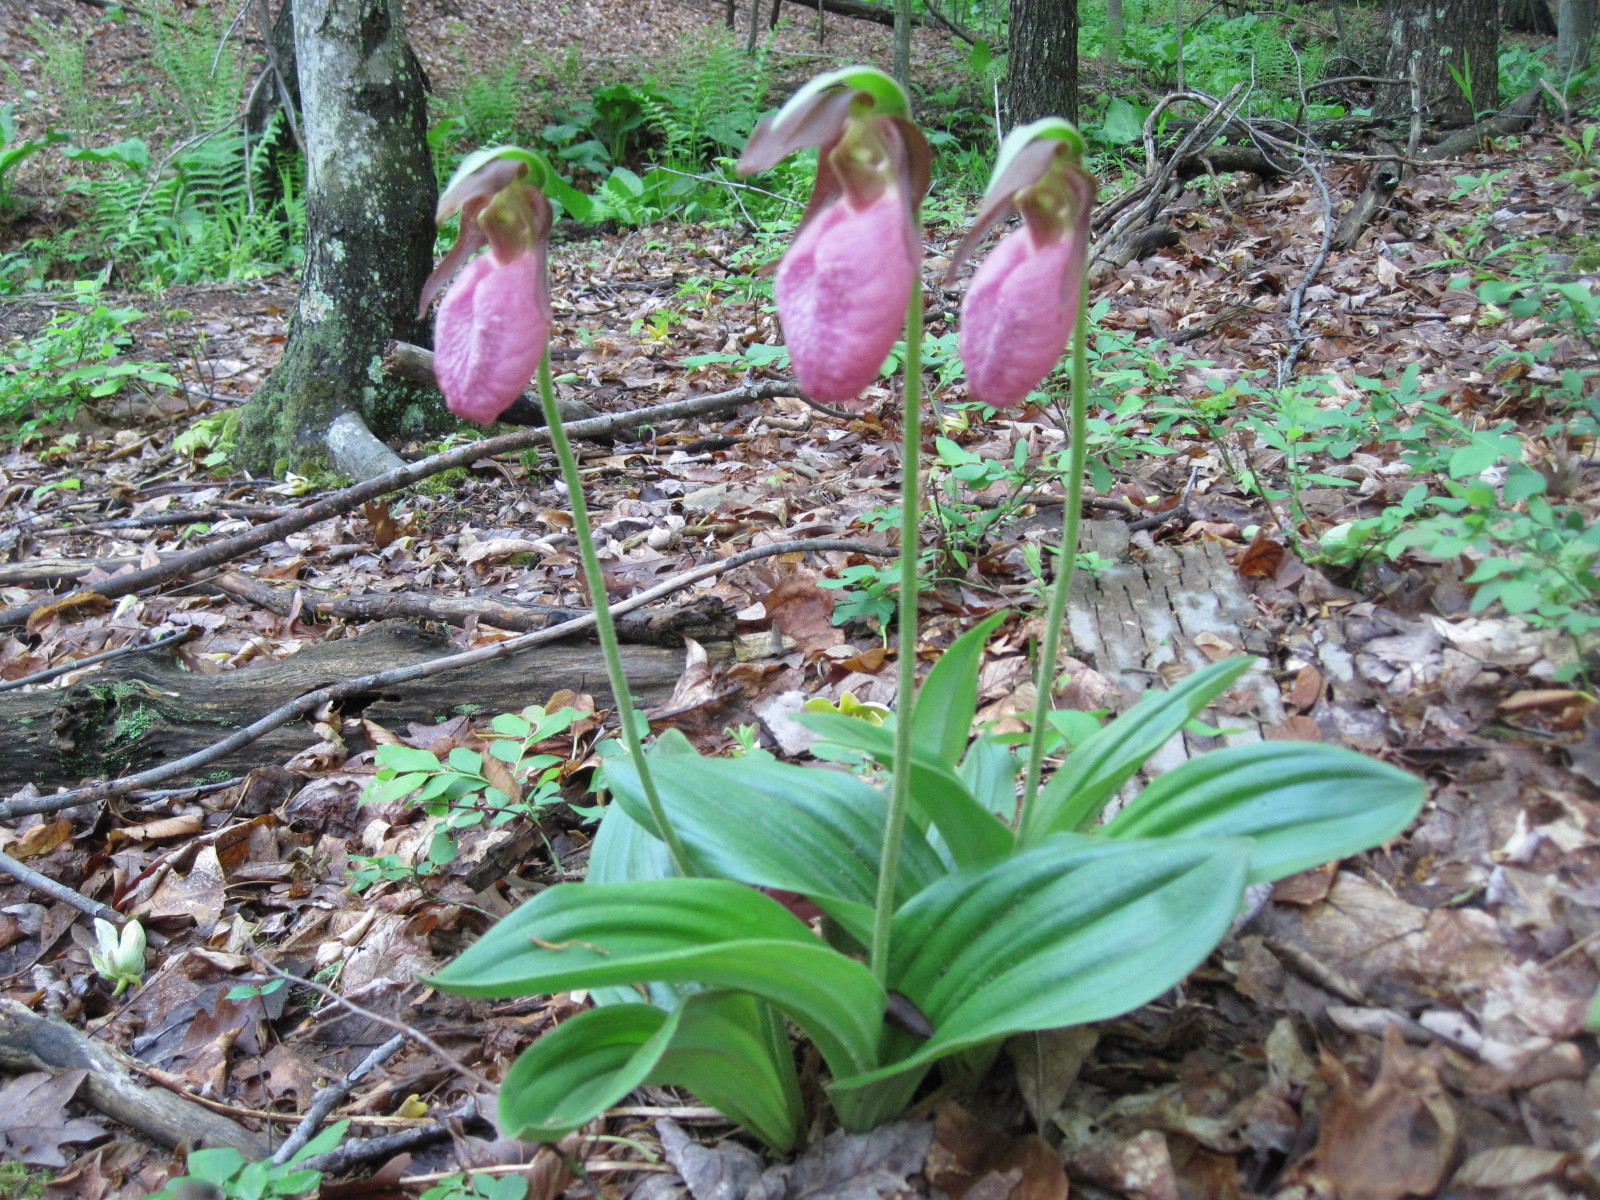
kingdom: Plantae
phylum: Tracheophyta
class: Liliopsida
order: Asparagales
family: Orchidaceae
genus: Cypripedium
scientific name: Cypripedium acaule
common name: Pink lady's-slipper
